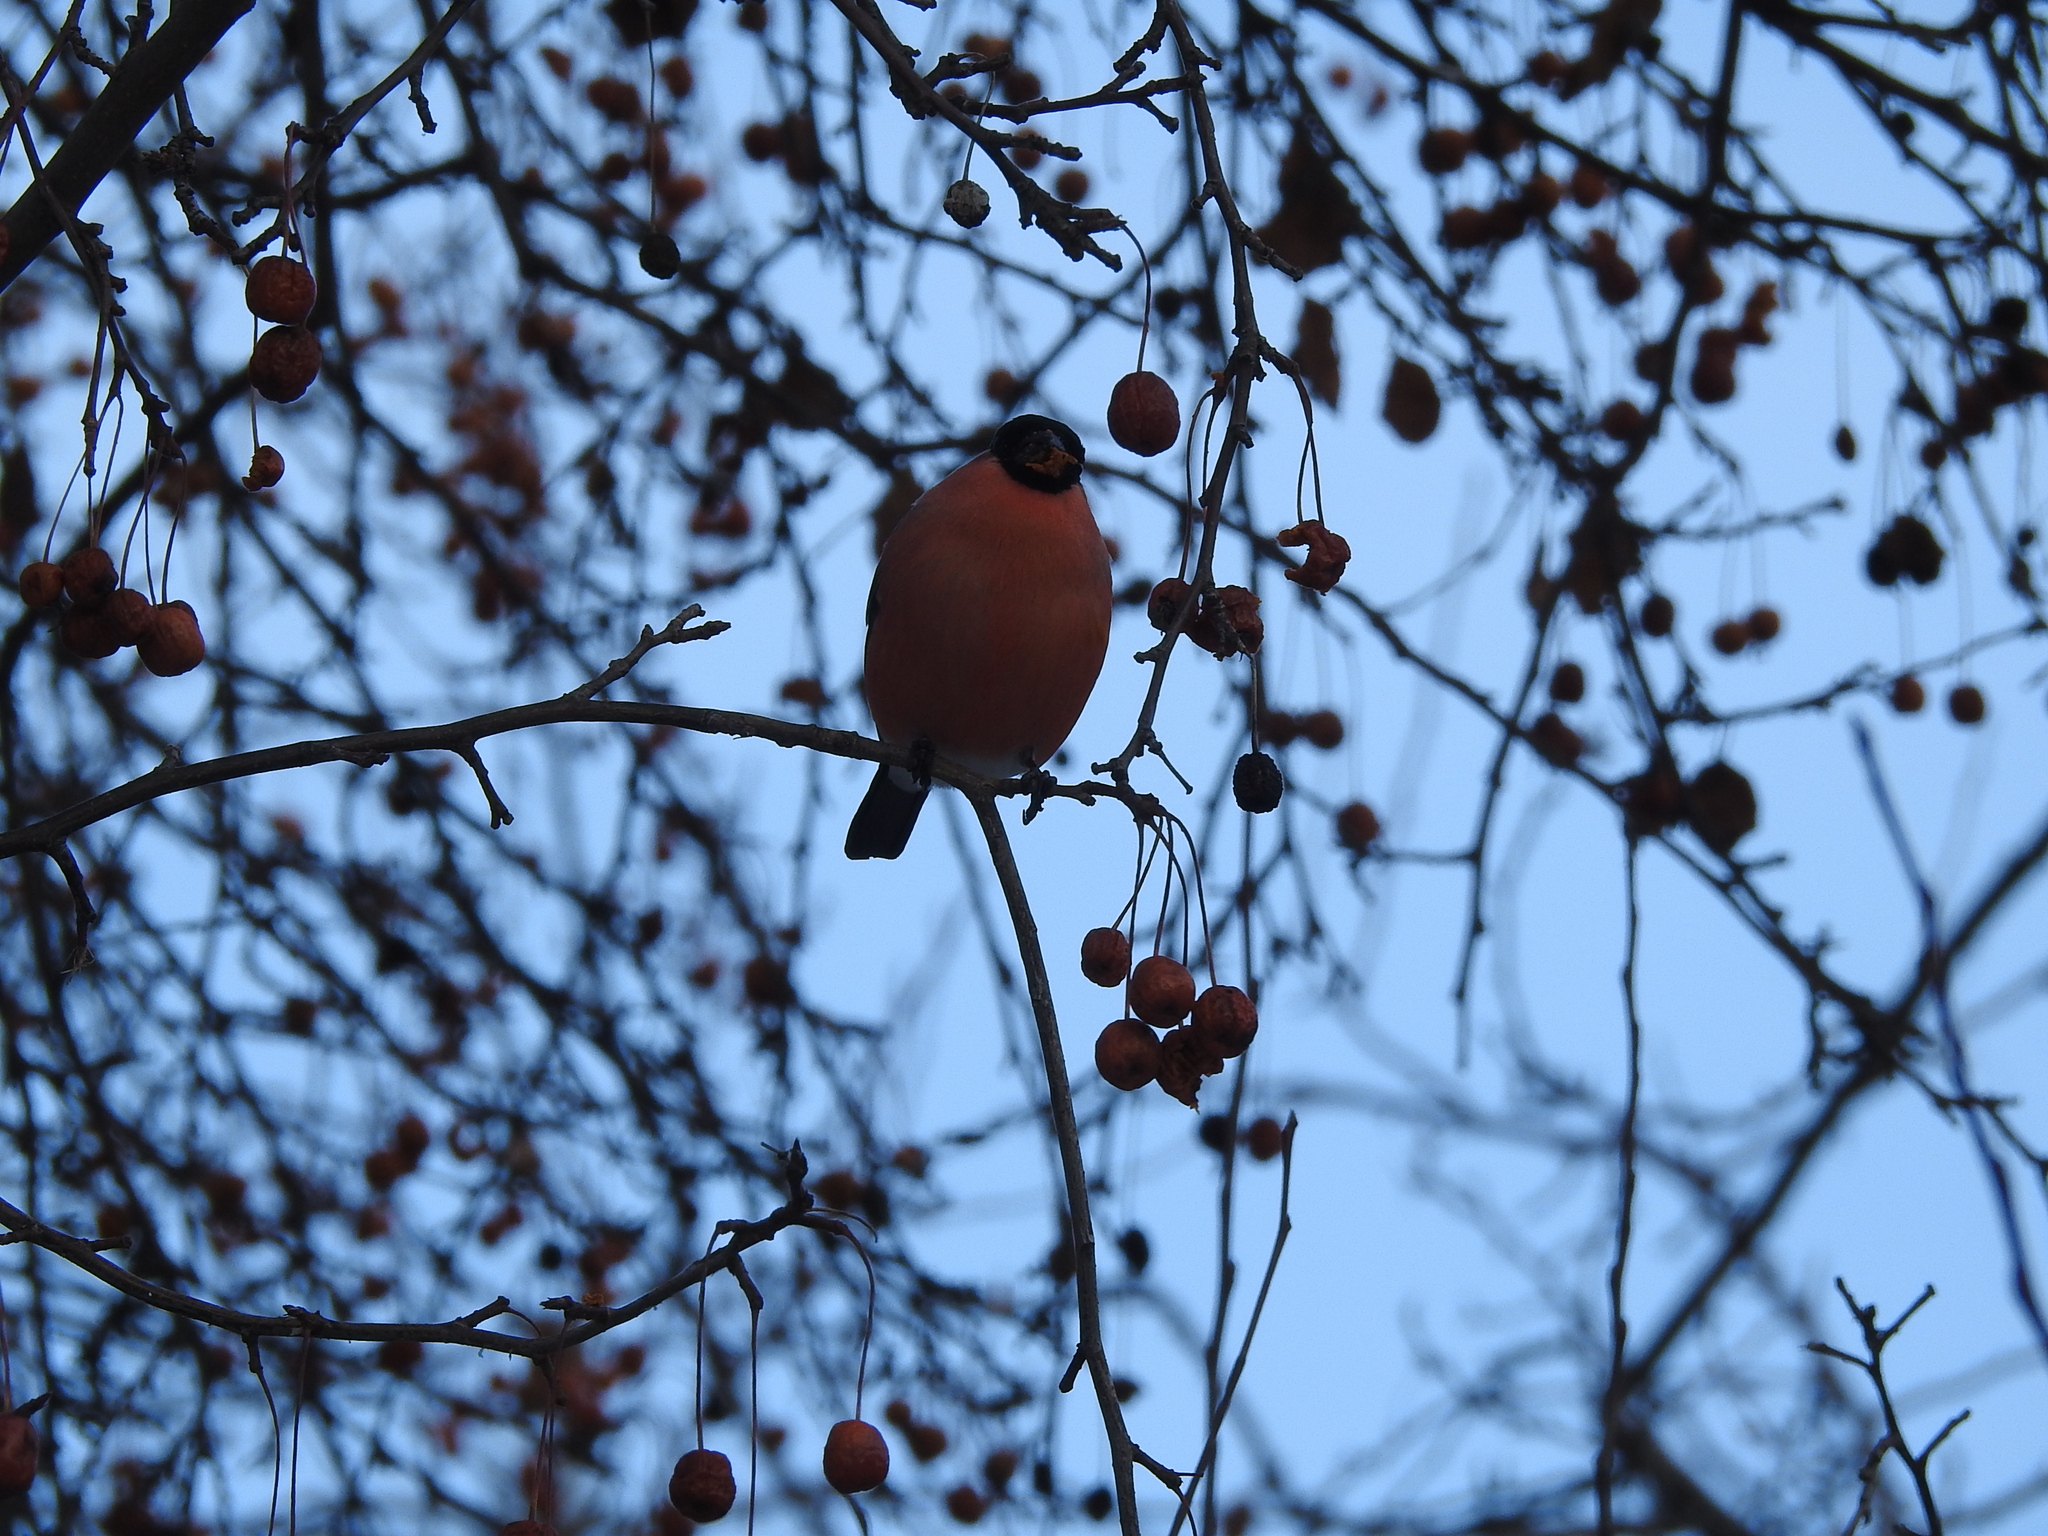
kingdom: Animalia
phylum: Chordata
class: Aves
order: Passeriformes
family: Fringillidae
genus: Pyrrhula
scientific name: Pyrrhula pyrrhula
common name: Eurasian bullfinch
